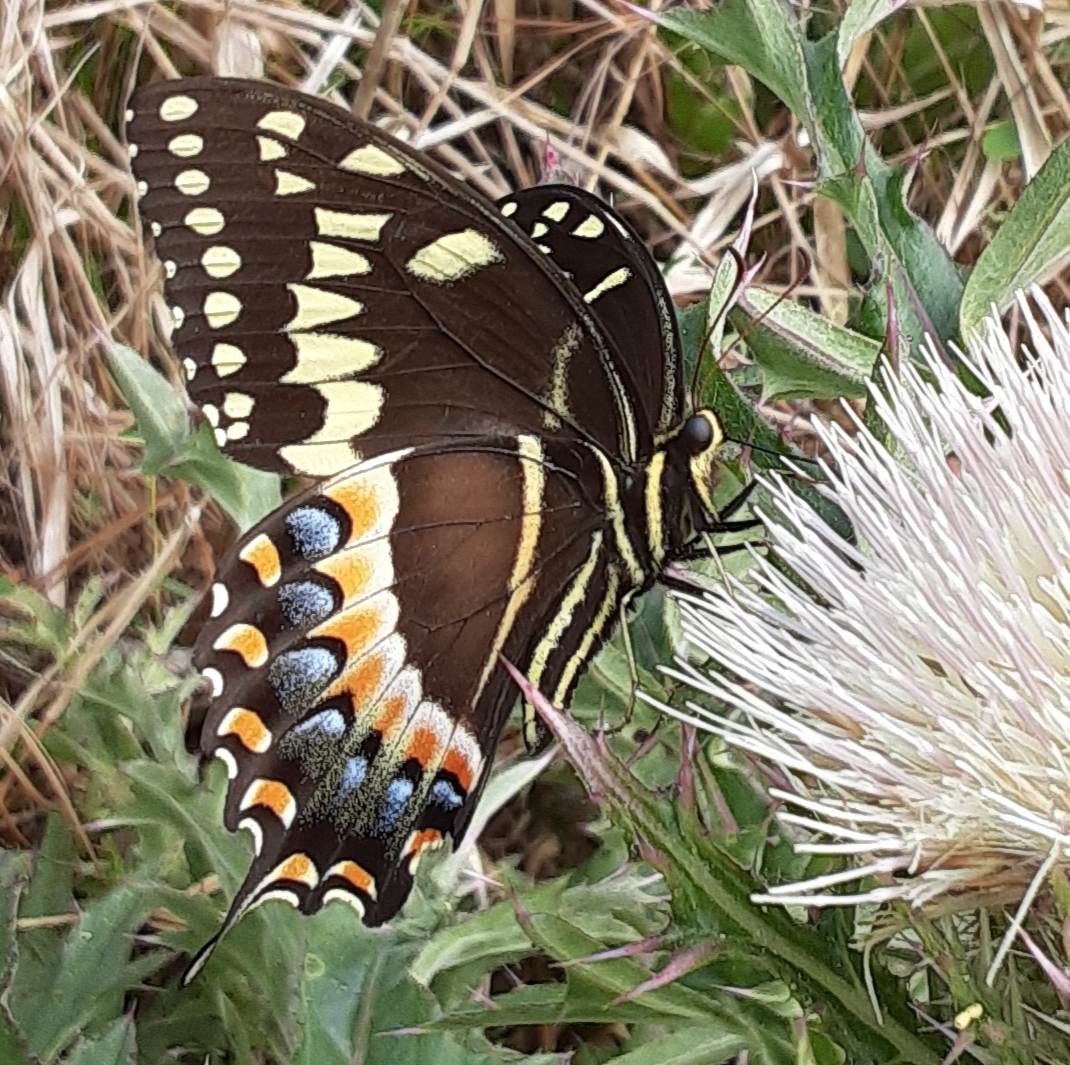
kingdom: Animalia
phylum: Arthropoda
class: Insecta
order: Lepidoptera
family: Papilionidae
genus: Papilio
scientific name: Papilio palamedes
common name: Palamedes swallowtail
